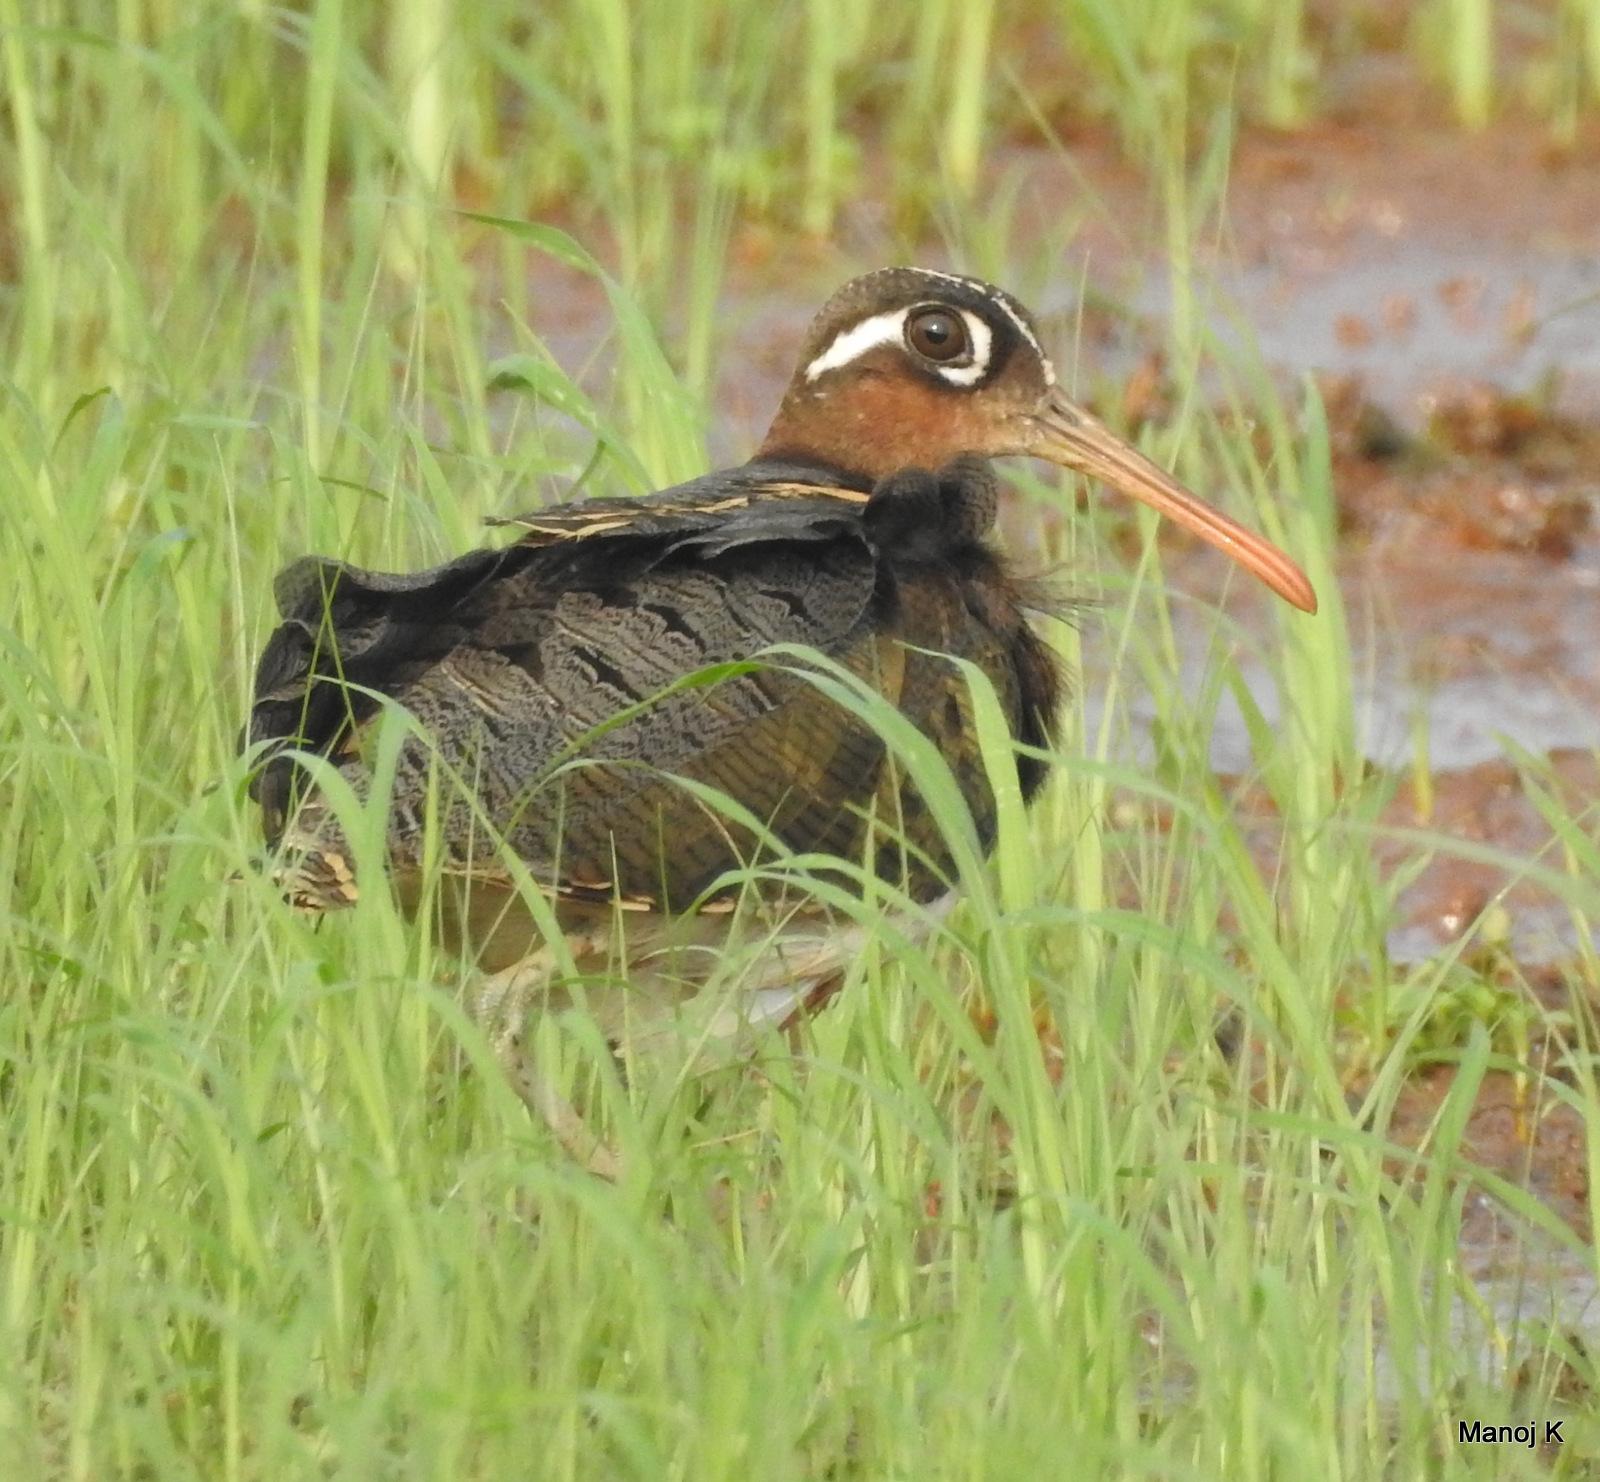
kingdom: Animalia
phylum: Chordata
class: Aves
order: Charadriiformes
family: Rostratulidae
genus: Rostratula
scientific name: Rostratula benghalensis
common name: Greater painted-snipe
